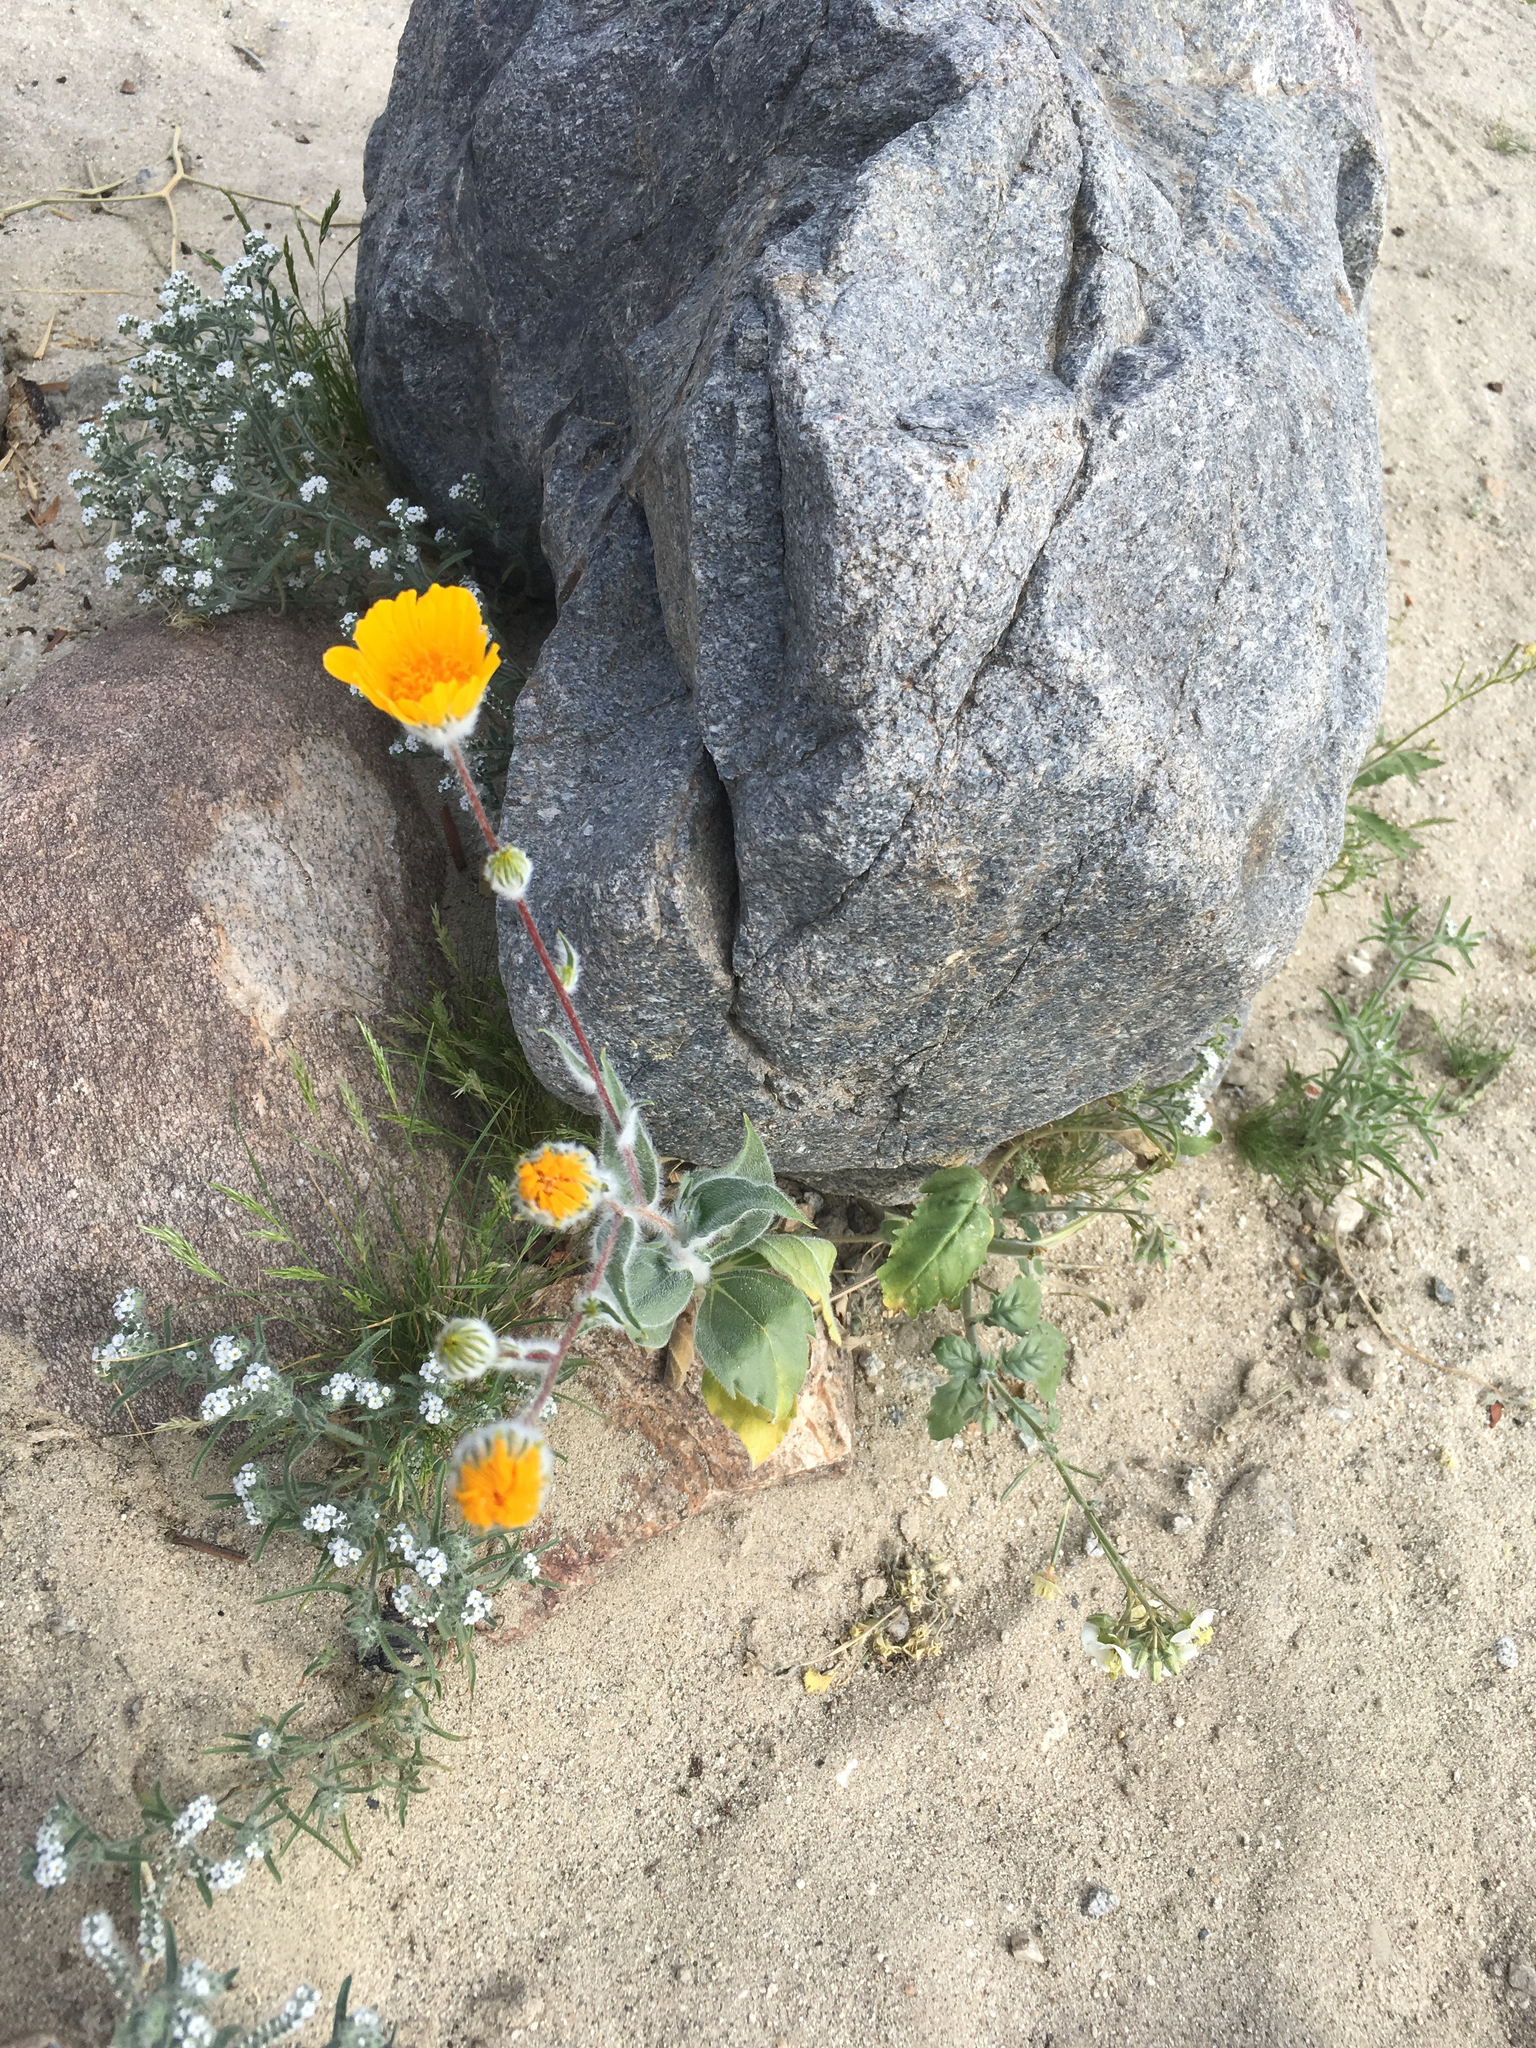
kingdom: Plantae
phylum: Tracheophyta
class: Magnoliopsida
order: Asterales
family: Asteraceae
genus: Geraea
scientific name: Geraea canescens
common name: Desert-gold
